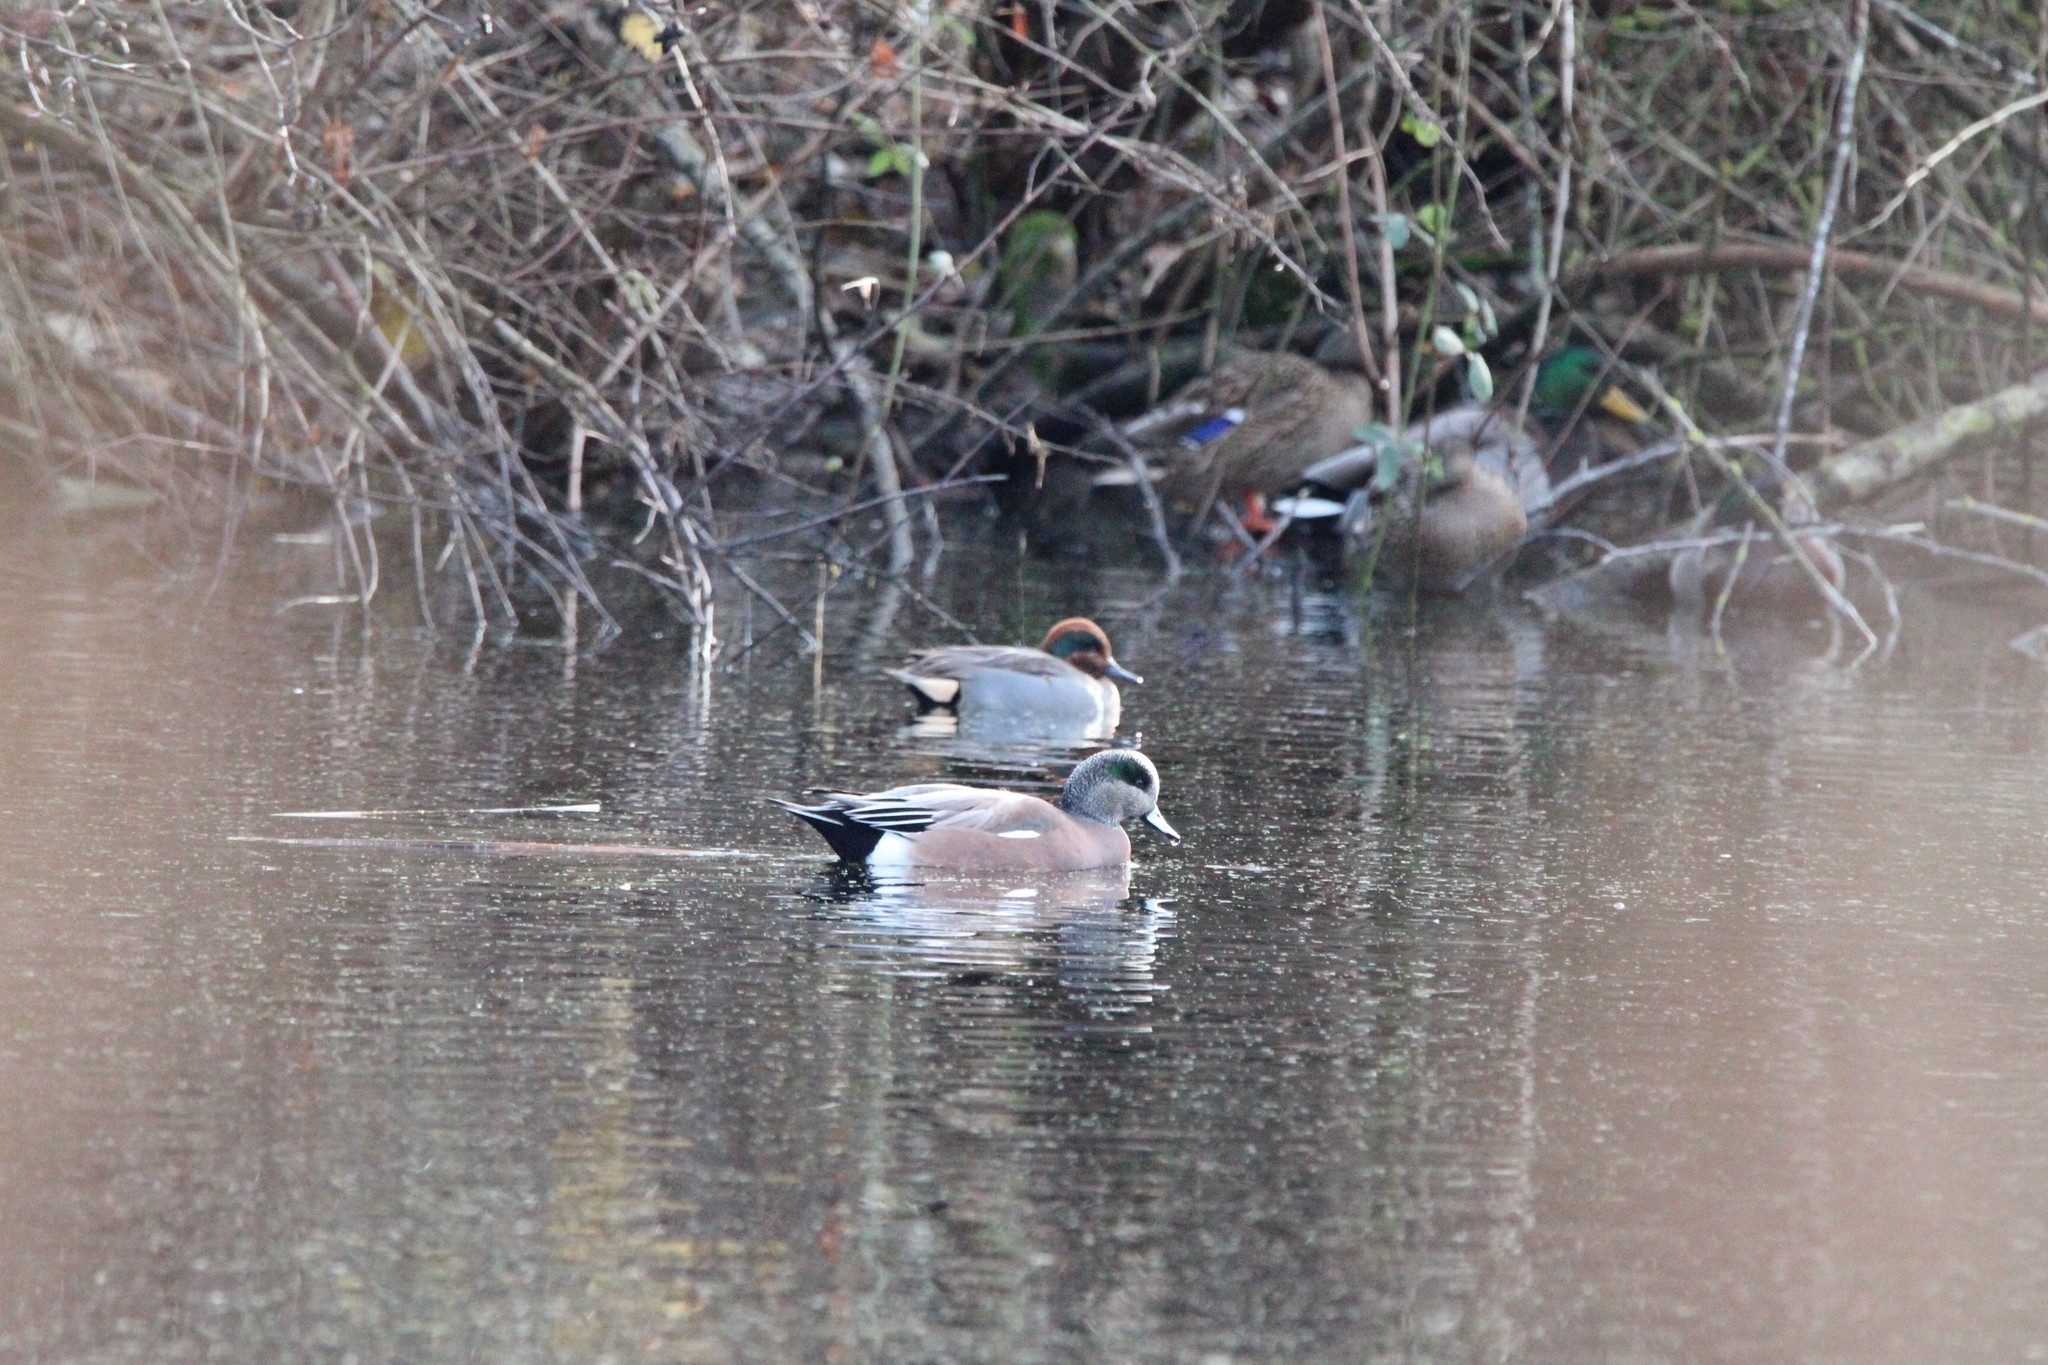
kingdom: Animalia
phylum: Chordata
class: Aves
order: Anseriformes
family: Anatidae
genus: Anas
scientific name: Anas carolinensis
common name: Green-winged teal
